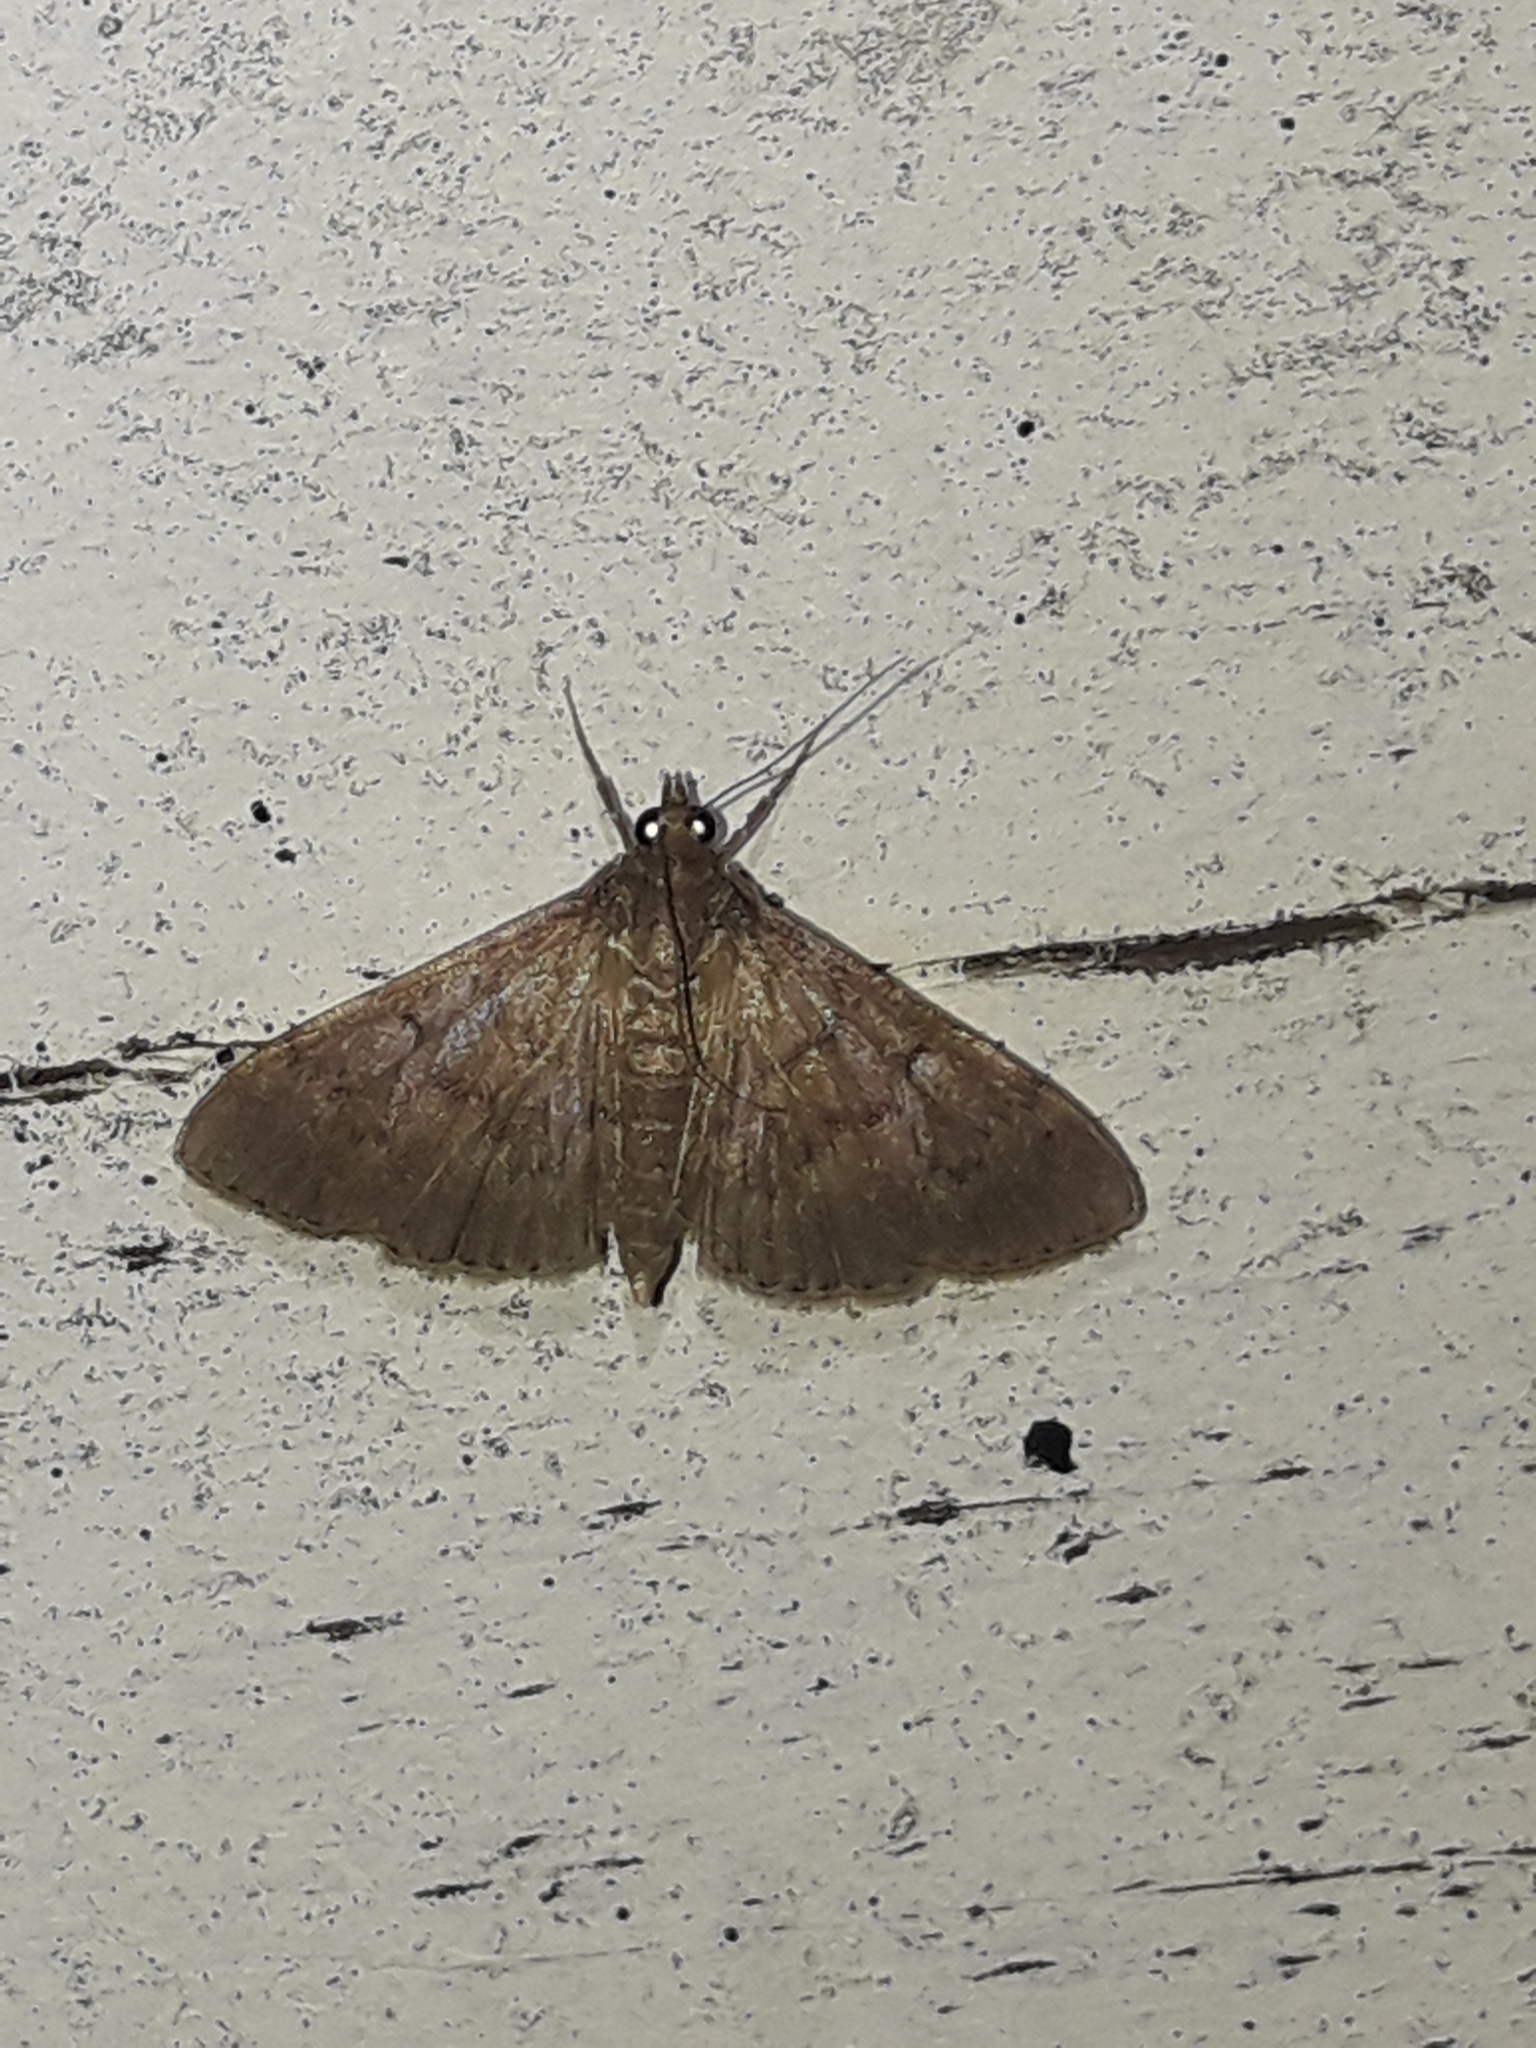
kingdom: Animalia
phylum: Arthropoda
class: Insecta
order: Lepidoptera
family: Crambidae
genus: Herpetogramma
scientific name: Herpetogramma licarsisalis
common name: Grass webworm
